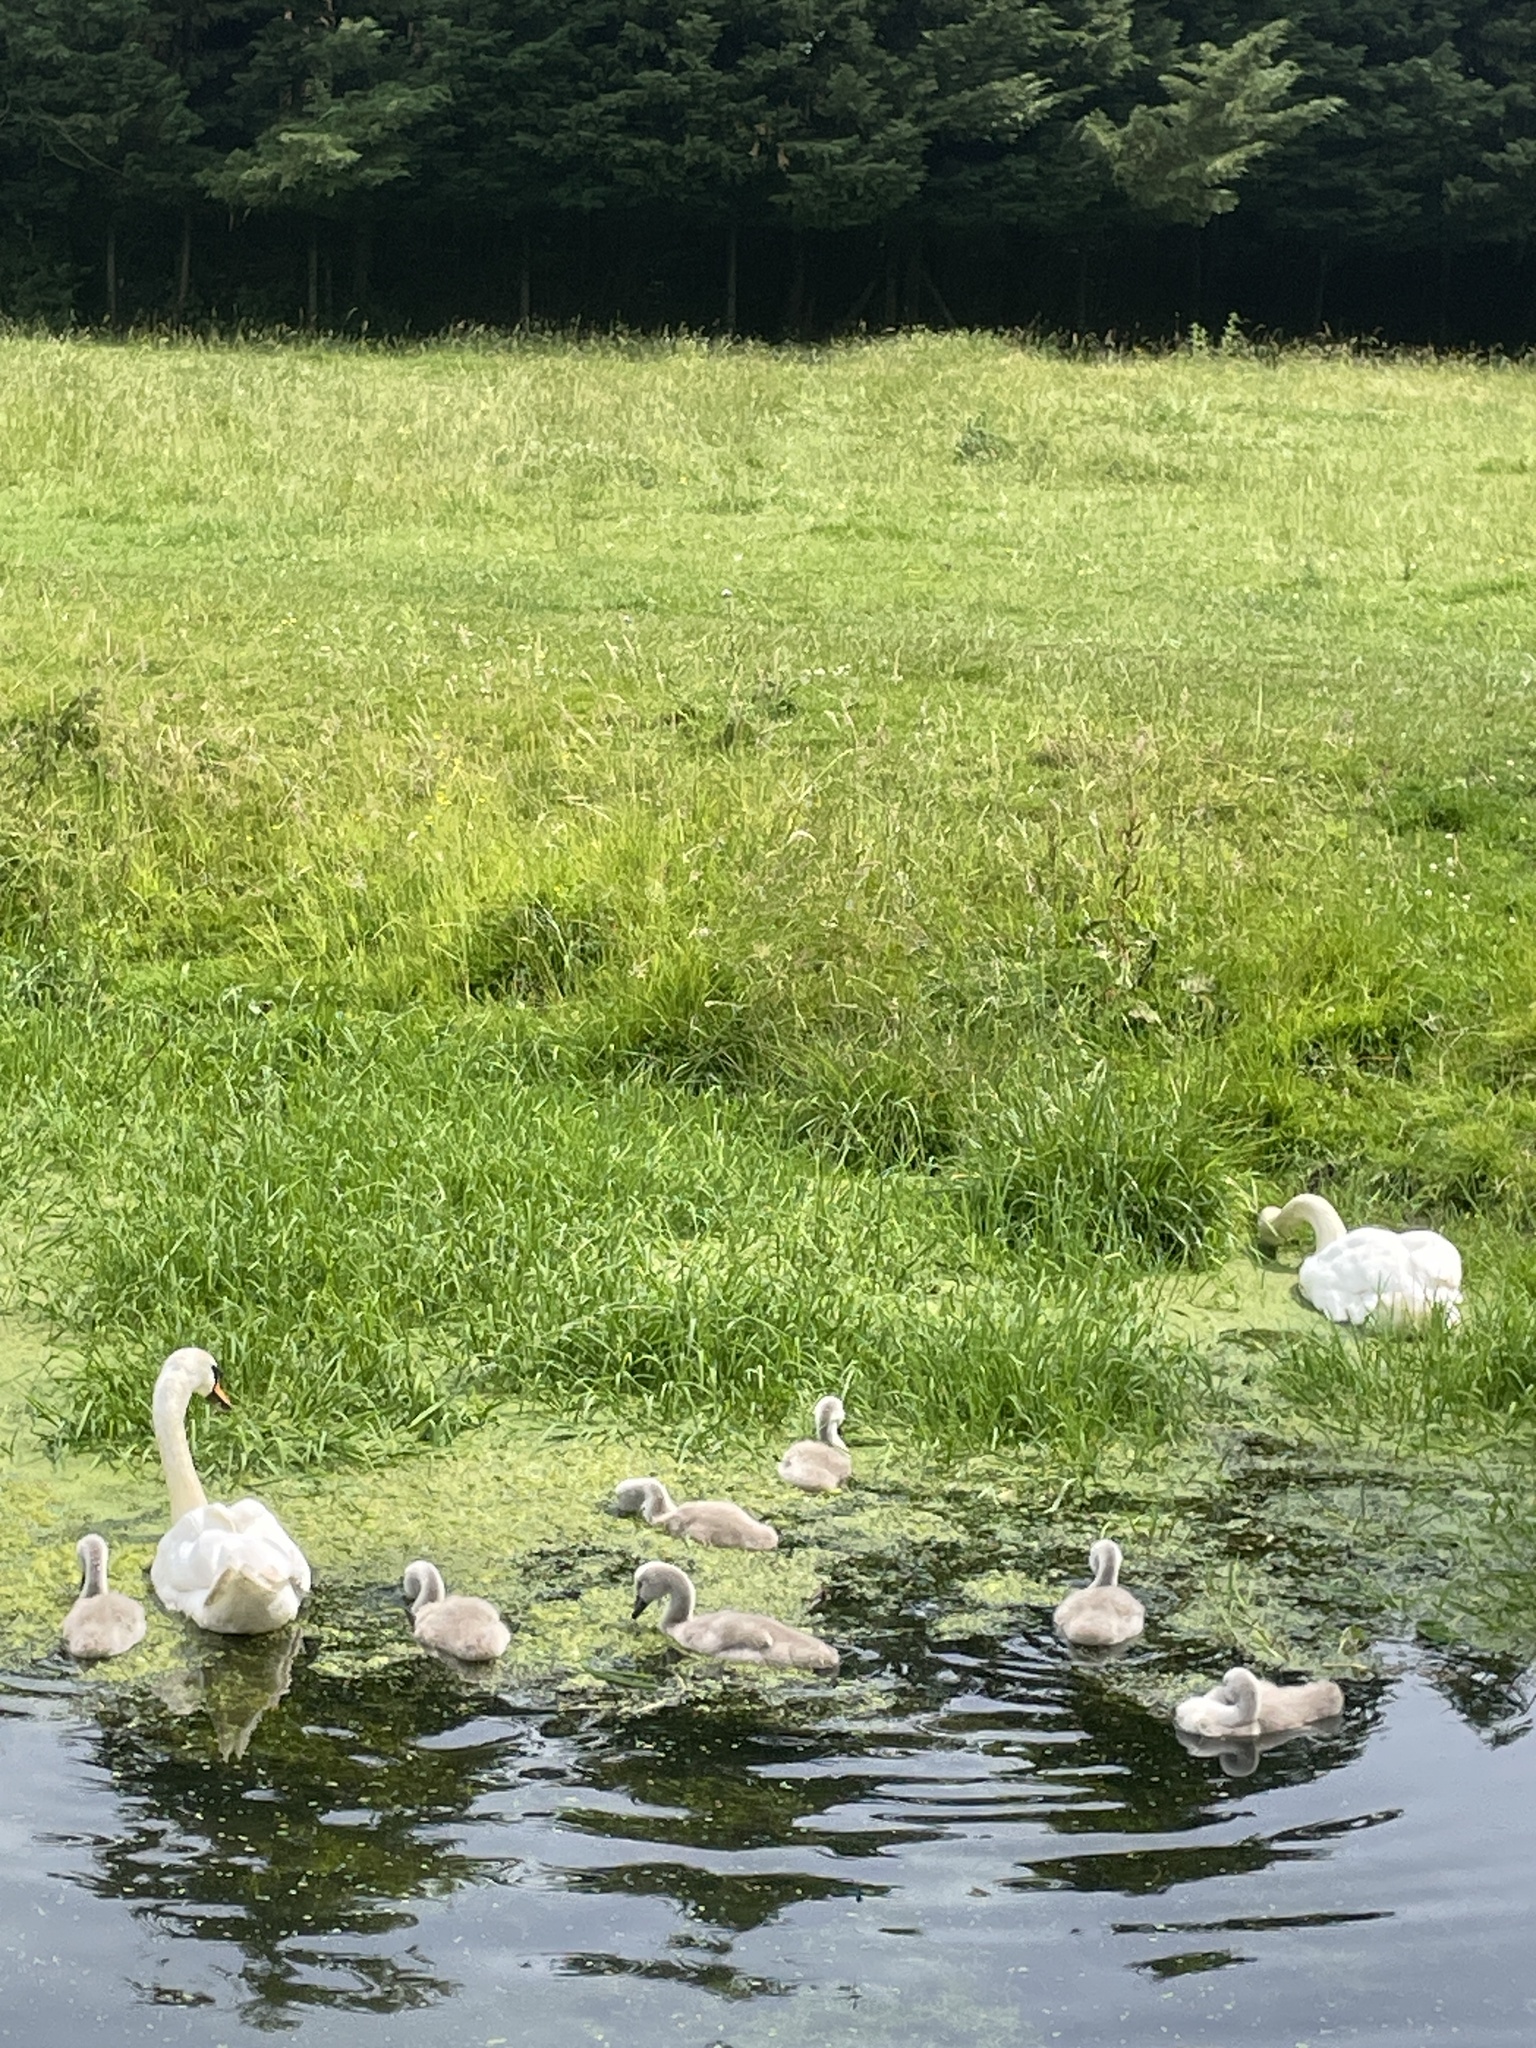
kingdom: Animalia
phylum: Chordata
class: Aves
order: Anseriformes
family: Anatidae
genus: Cygnus
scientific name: Cygnus olor
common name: Mute swan
